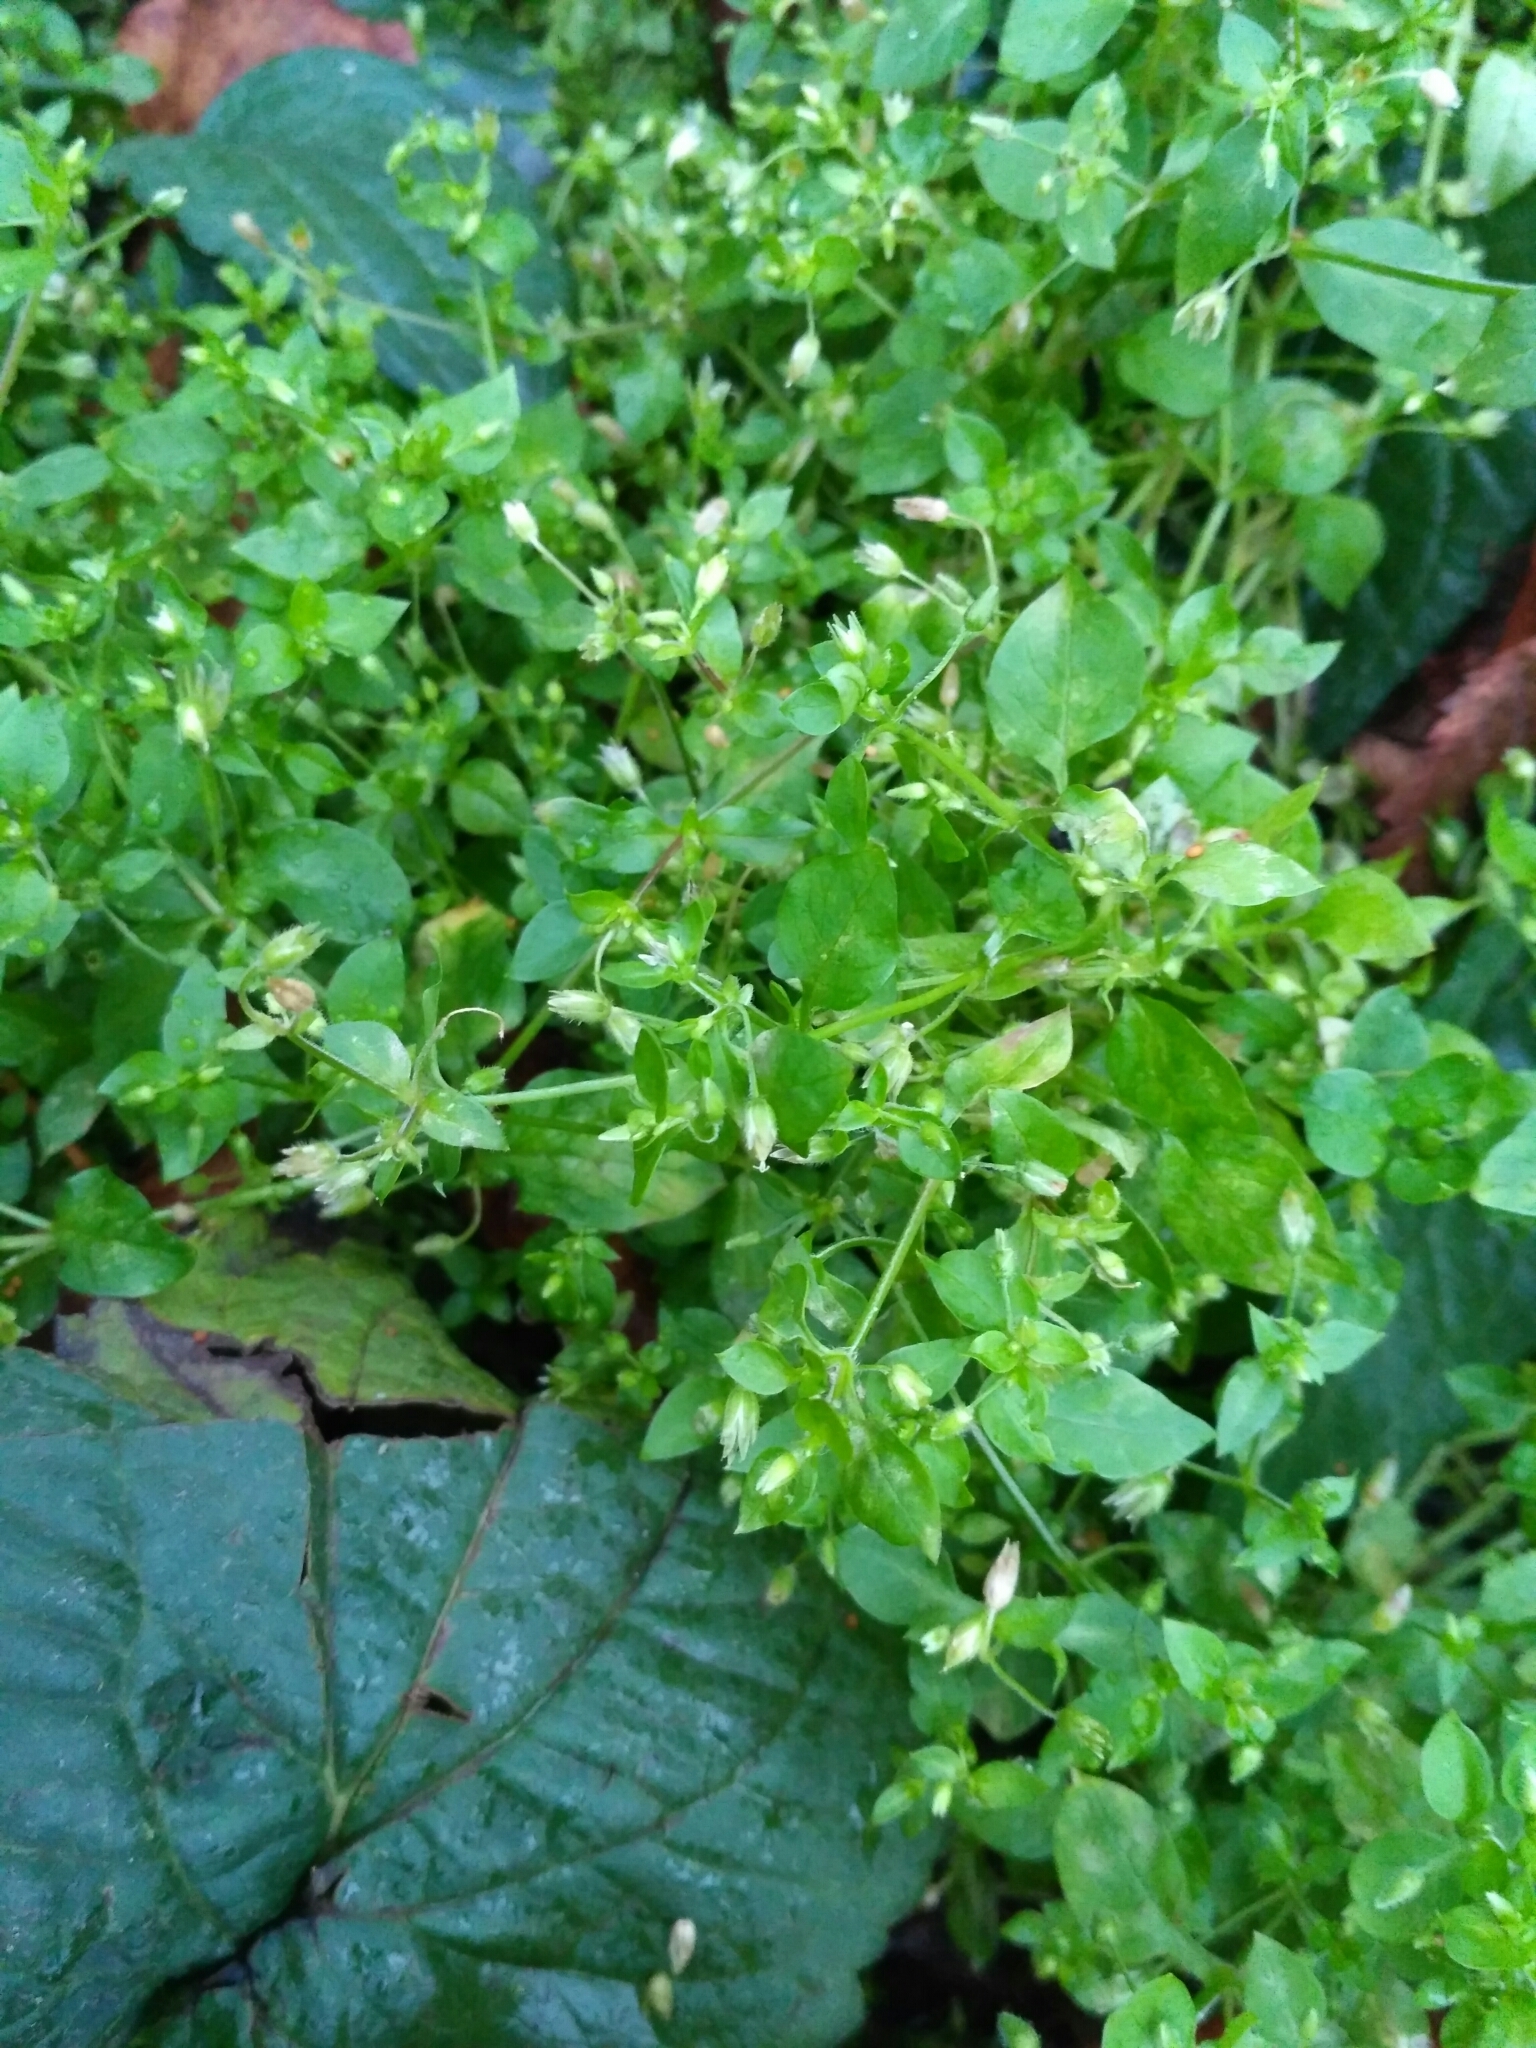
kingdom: Plantae
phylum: Tracheophyta
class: Magnoliopsida
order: Caryophyllales
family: Caryophyllaceae
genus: Stellaria
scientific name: Stellaria media
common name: Common chickweed
